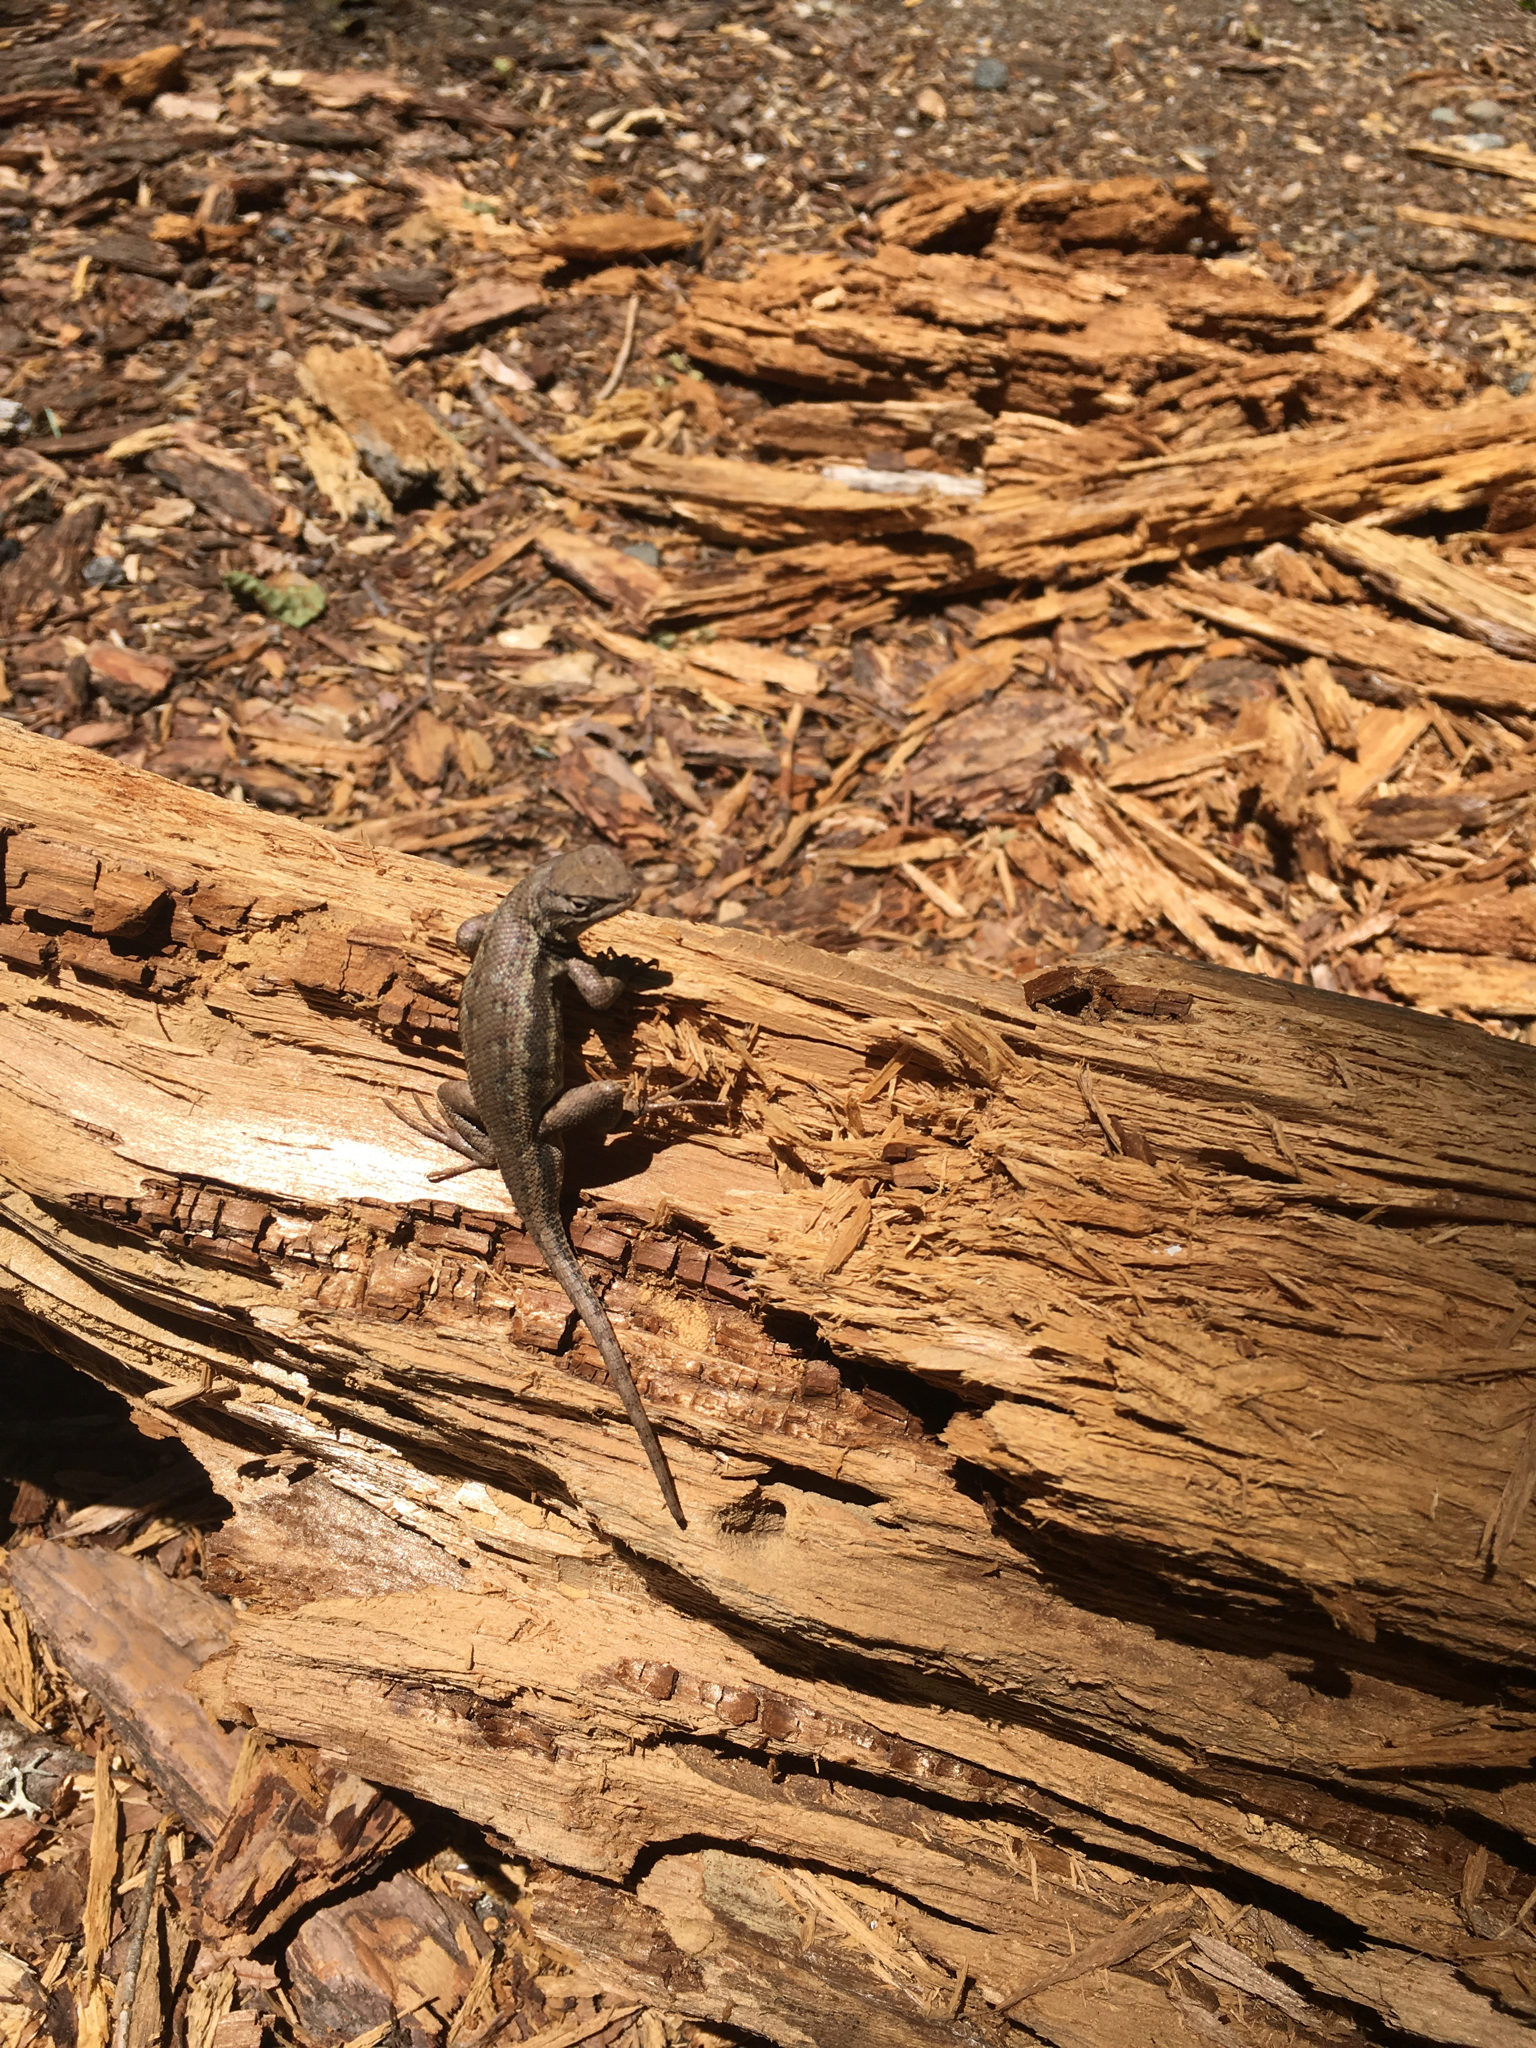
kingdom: Animalia
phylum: Chordata
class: Squamata
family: Phrynosomatidae
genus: Sceloporus
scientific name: Sceloporus graciosus
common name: Sagebrush lizard
